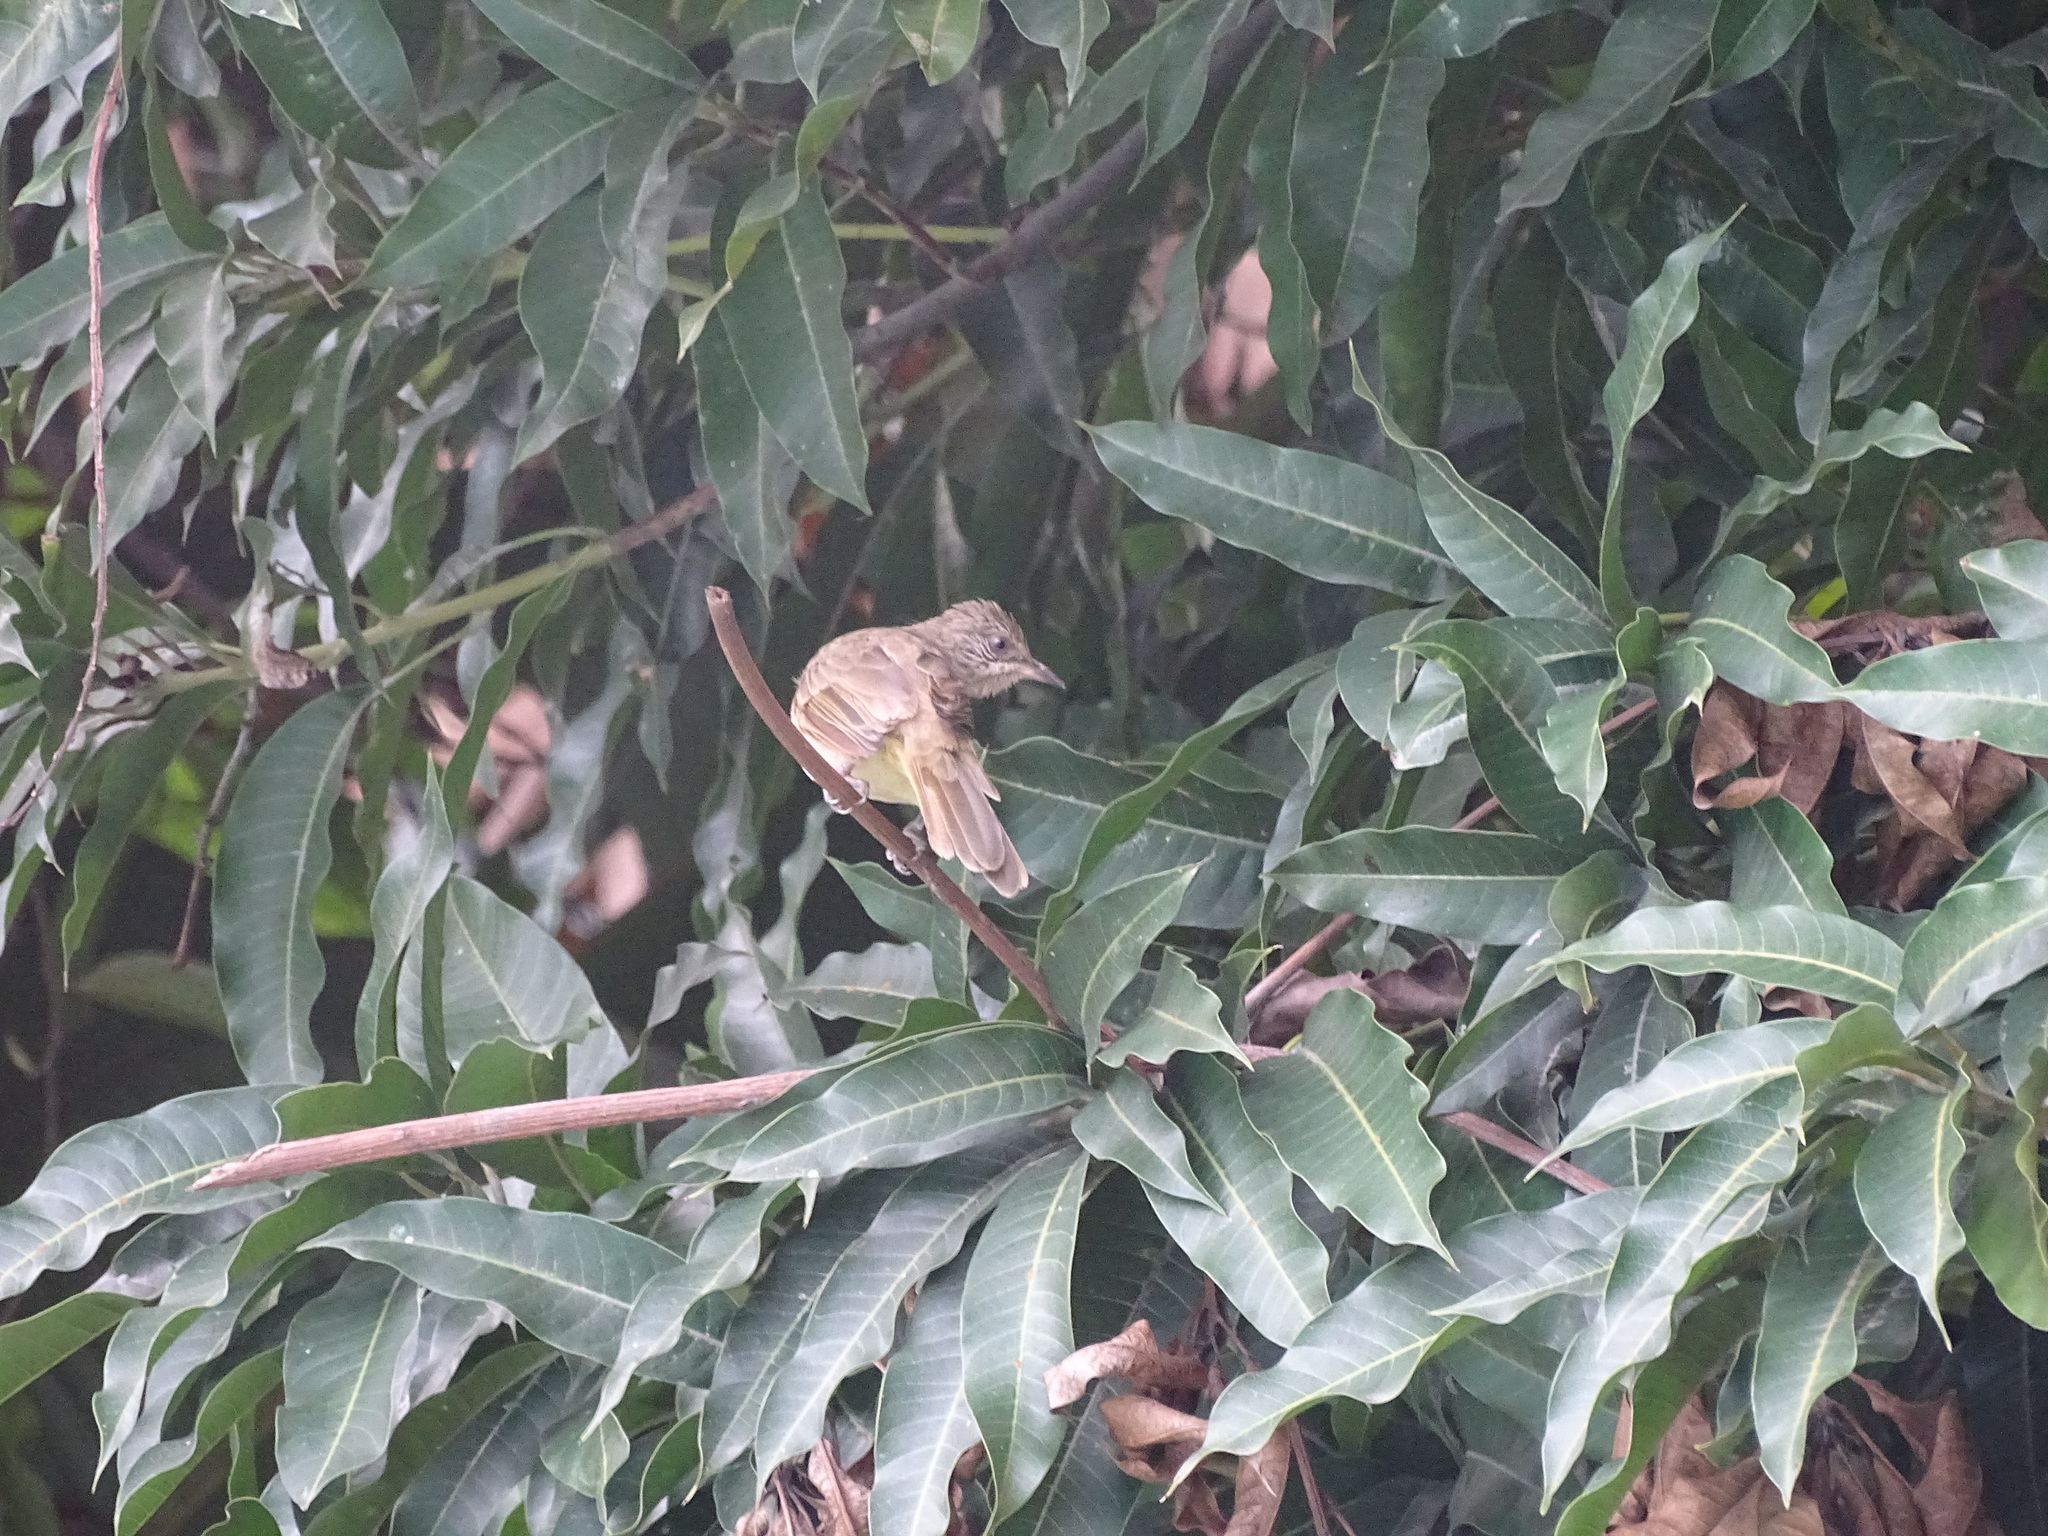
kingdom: Animalia
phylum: Chordata
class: Aves
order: Passeriformes
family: Pycnonotidae
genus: Pycnonotus
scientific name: Pycnonotus blanfordi
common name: Streak-eared bulbul
